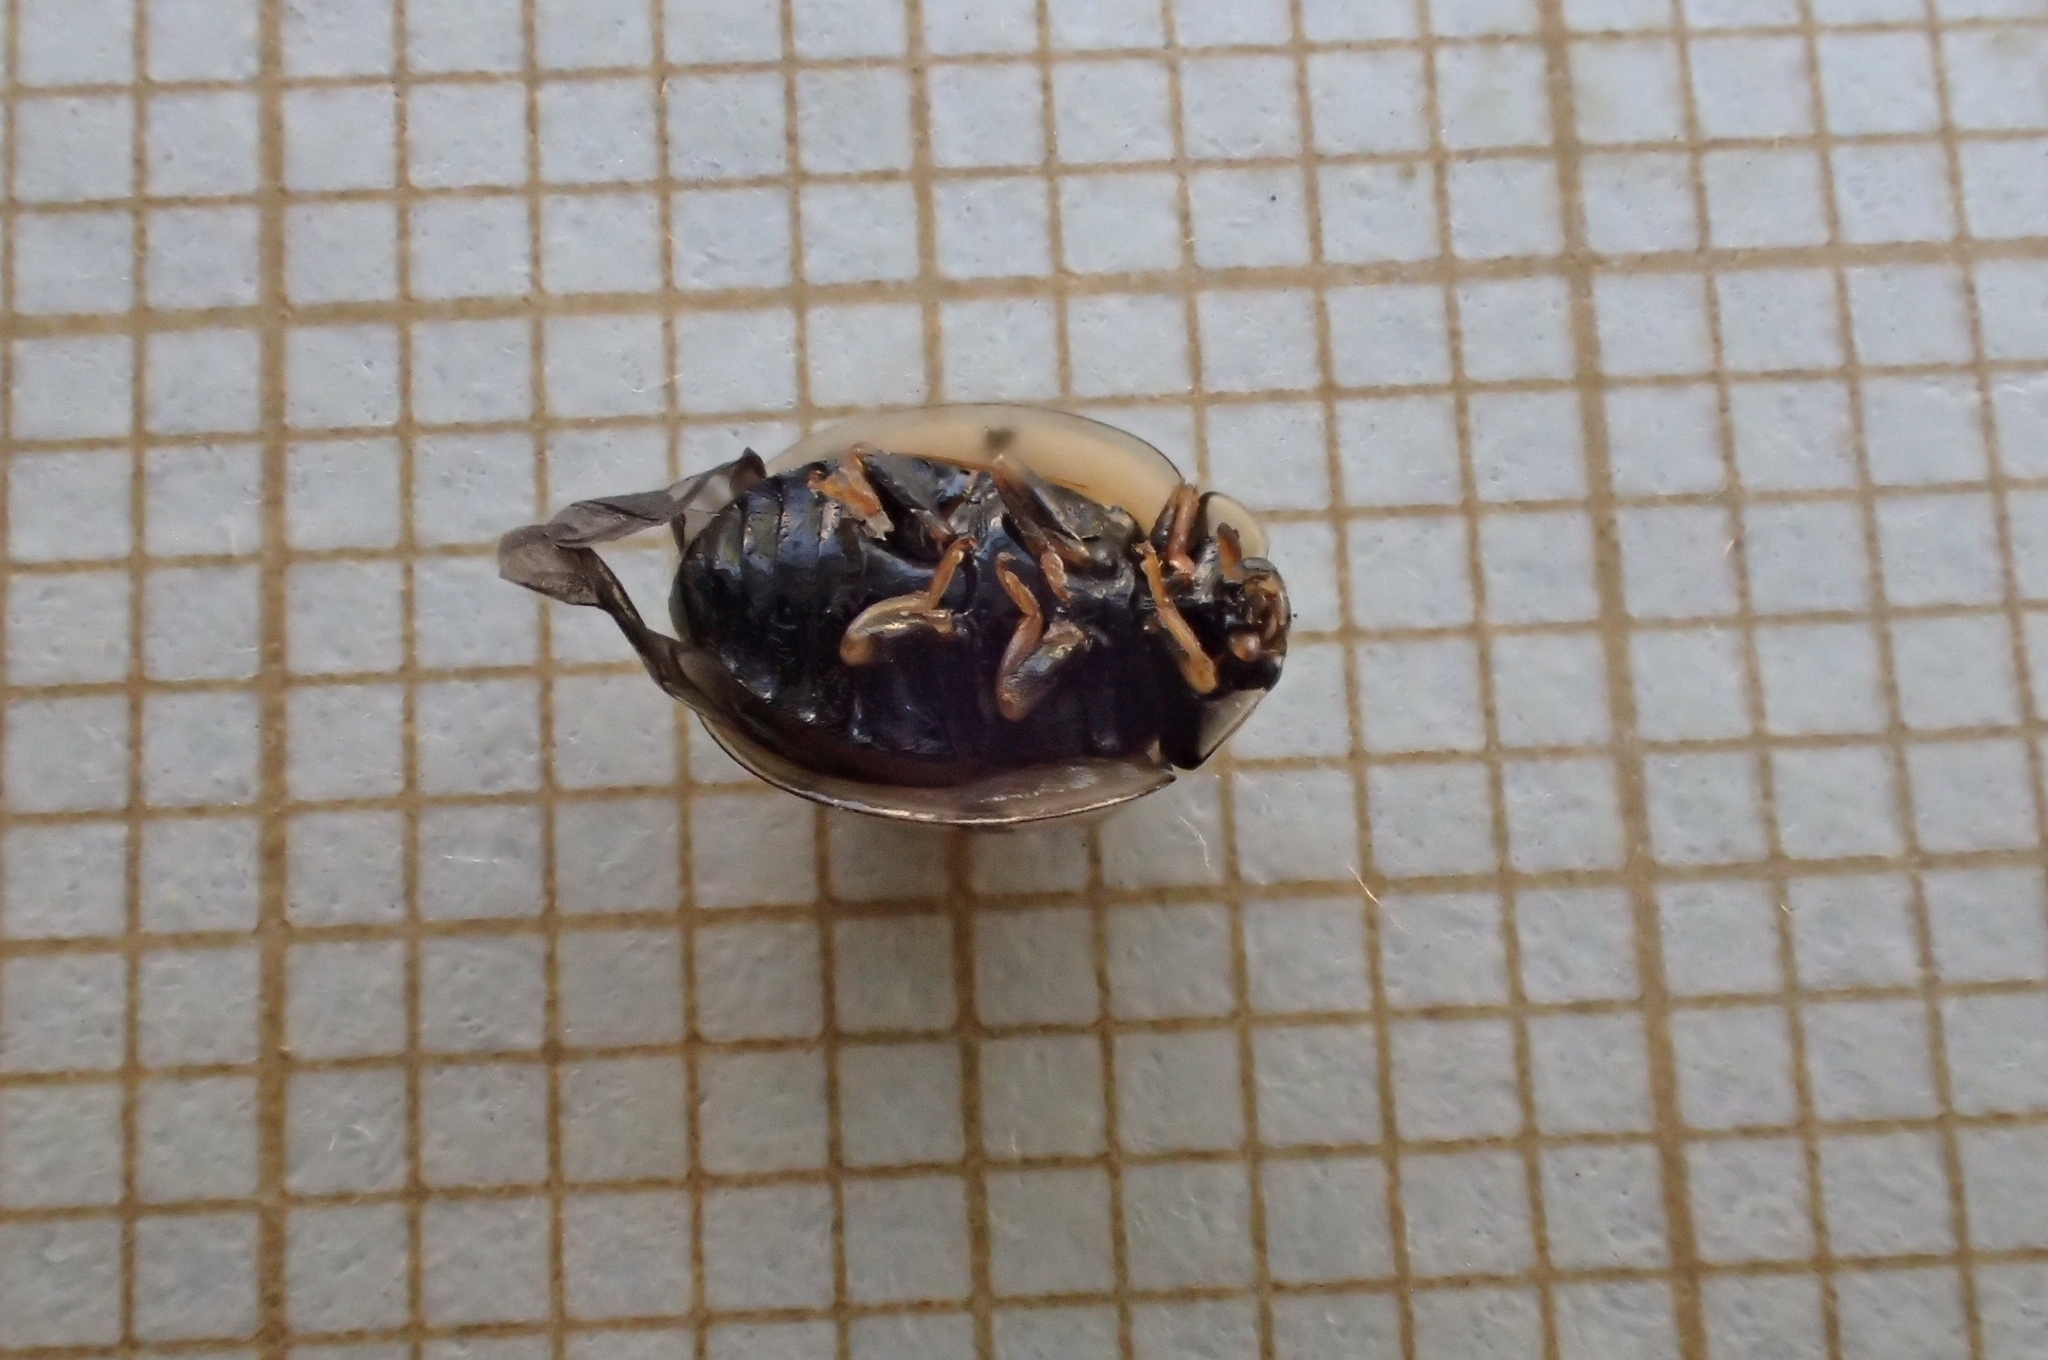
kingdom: Animalia
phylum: Arthropoda
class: Insecta
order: Coleoptera
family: Coccinellidae
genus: Oenopia
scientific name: Oenopia lyncea
